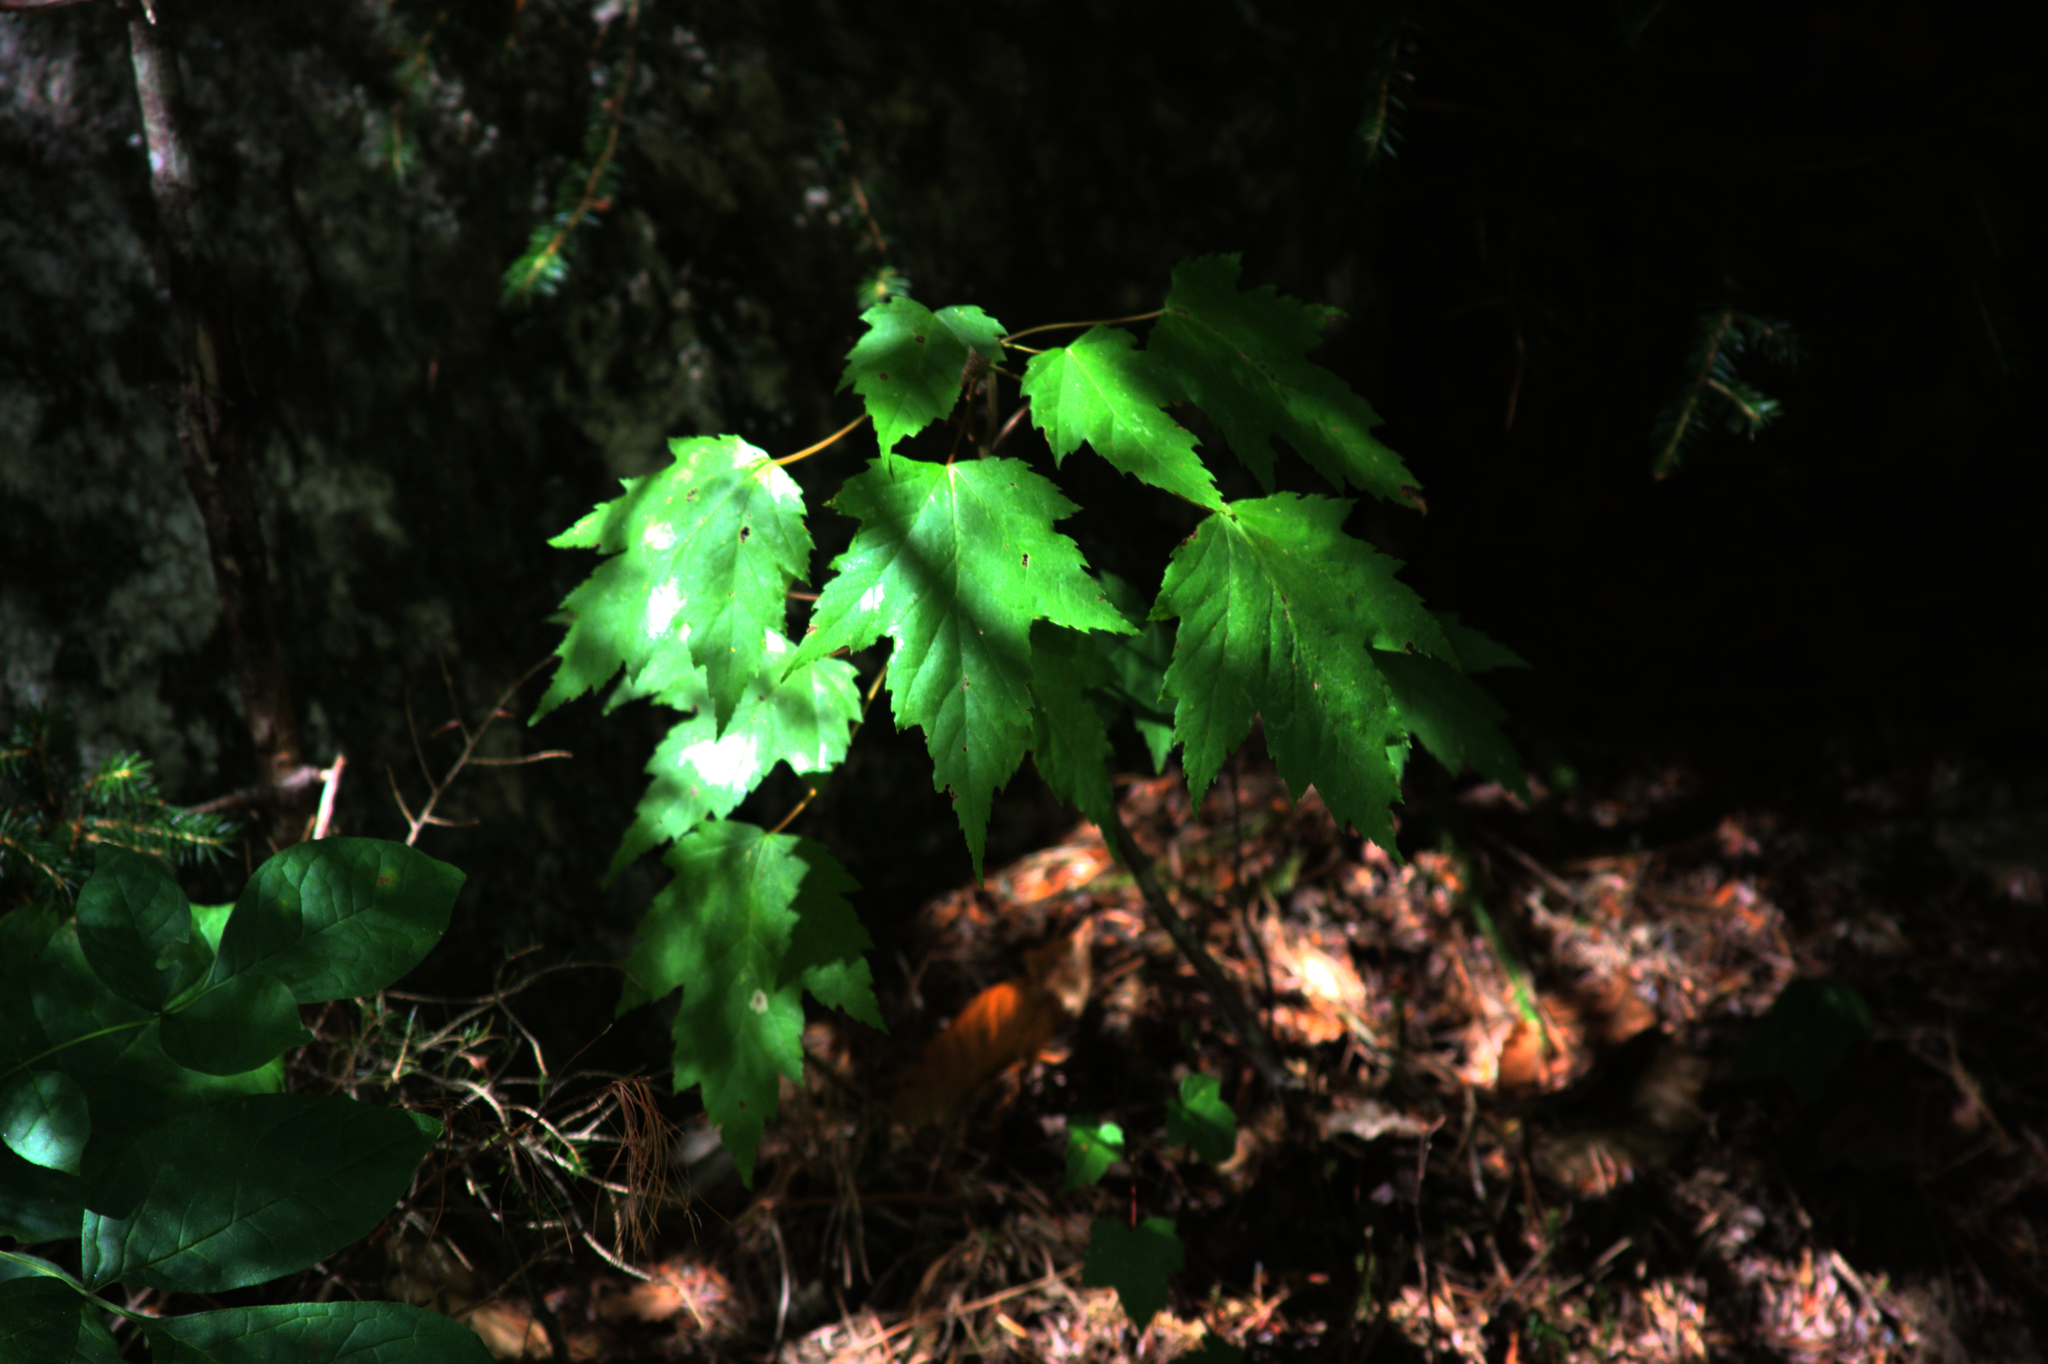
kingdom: Plantae
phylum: Tracheophyta
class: Magnoliopsida
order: Sapindales
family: Sapindaceae
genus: Acer
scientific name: Acer rubrum
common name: Red maple
